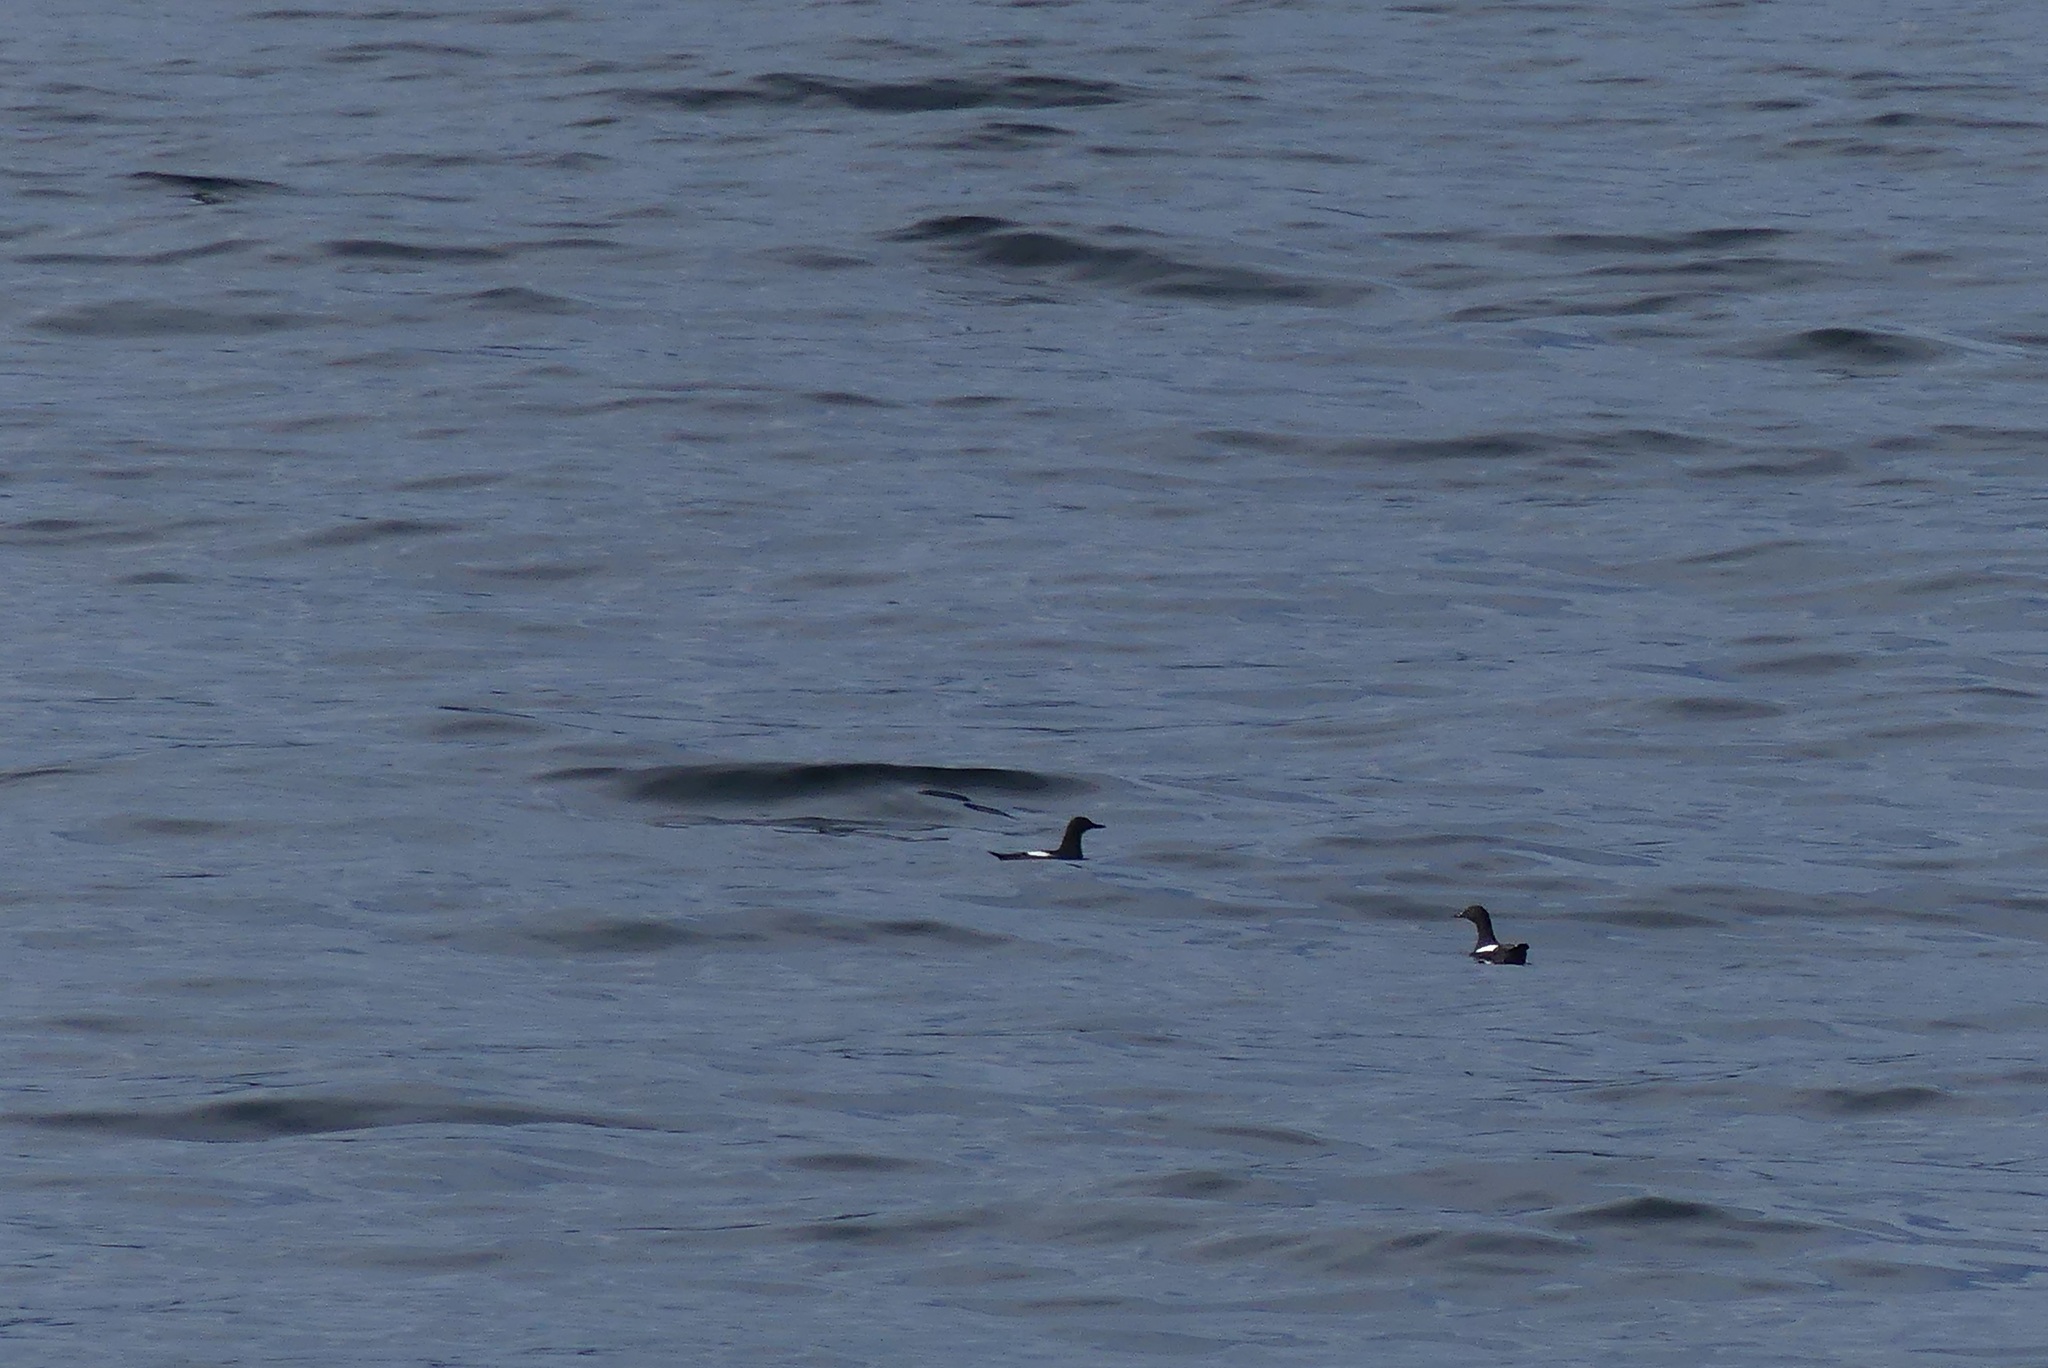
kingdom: Animalia
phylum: Chordata
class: Aves
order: Charadriiformes
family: Alcidae
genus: Cepphus
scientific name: Cepphus columba
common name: Pigeon guillemot
